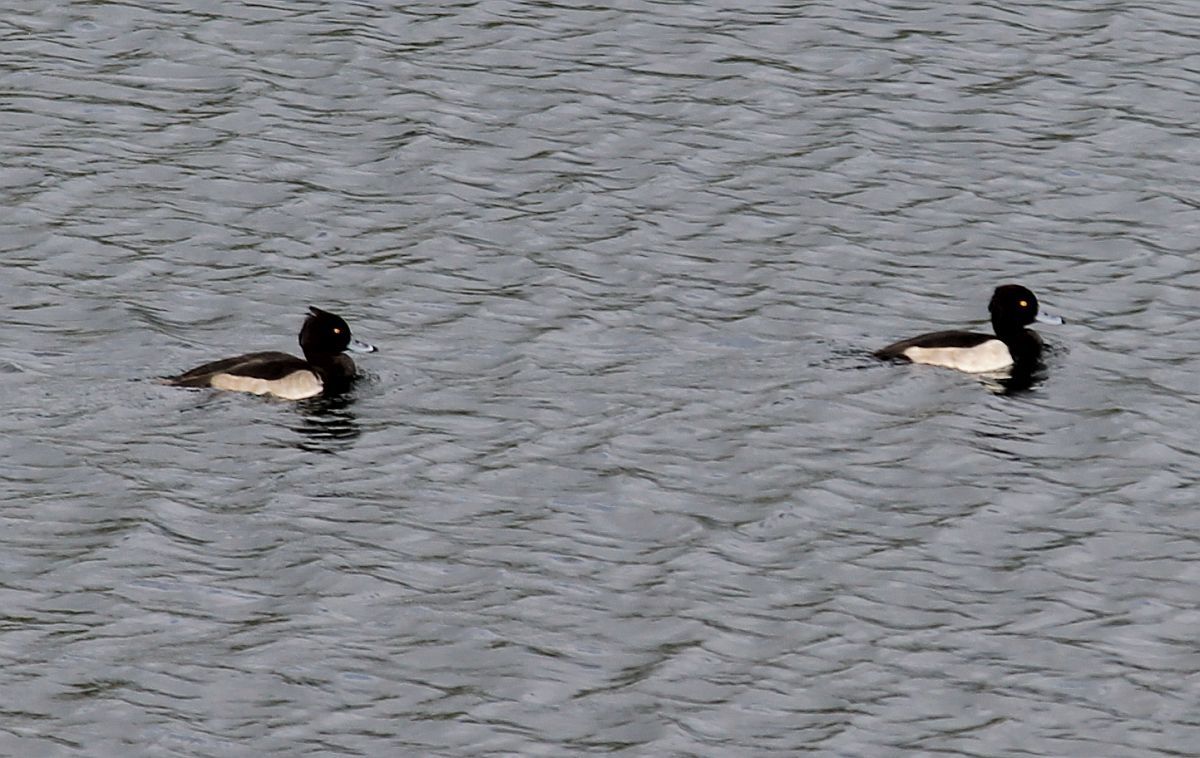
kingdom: Animalia
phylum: Chordata
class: Aves
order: Anseriformes
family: Anatidae
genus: Aythya
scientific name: Aythya fuligula
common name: Tufted duck
